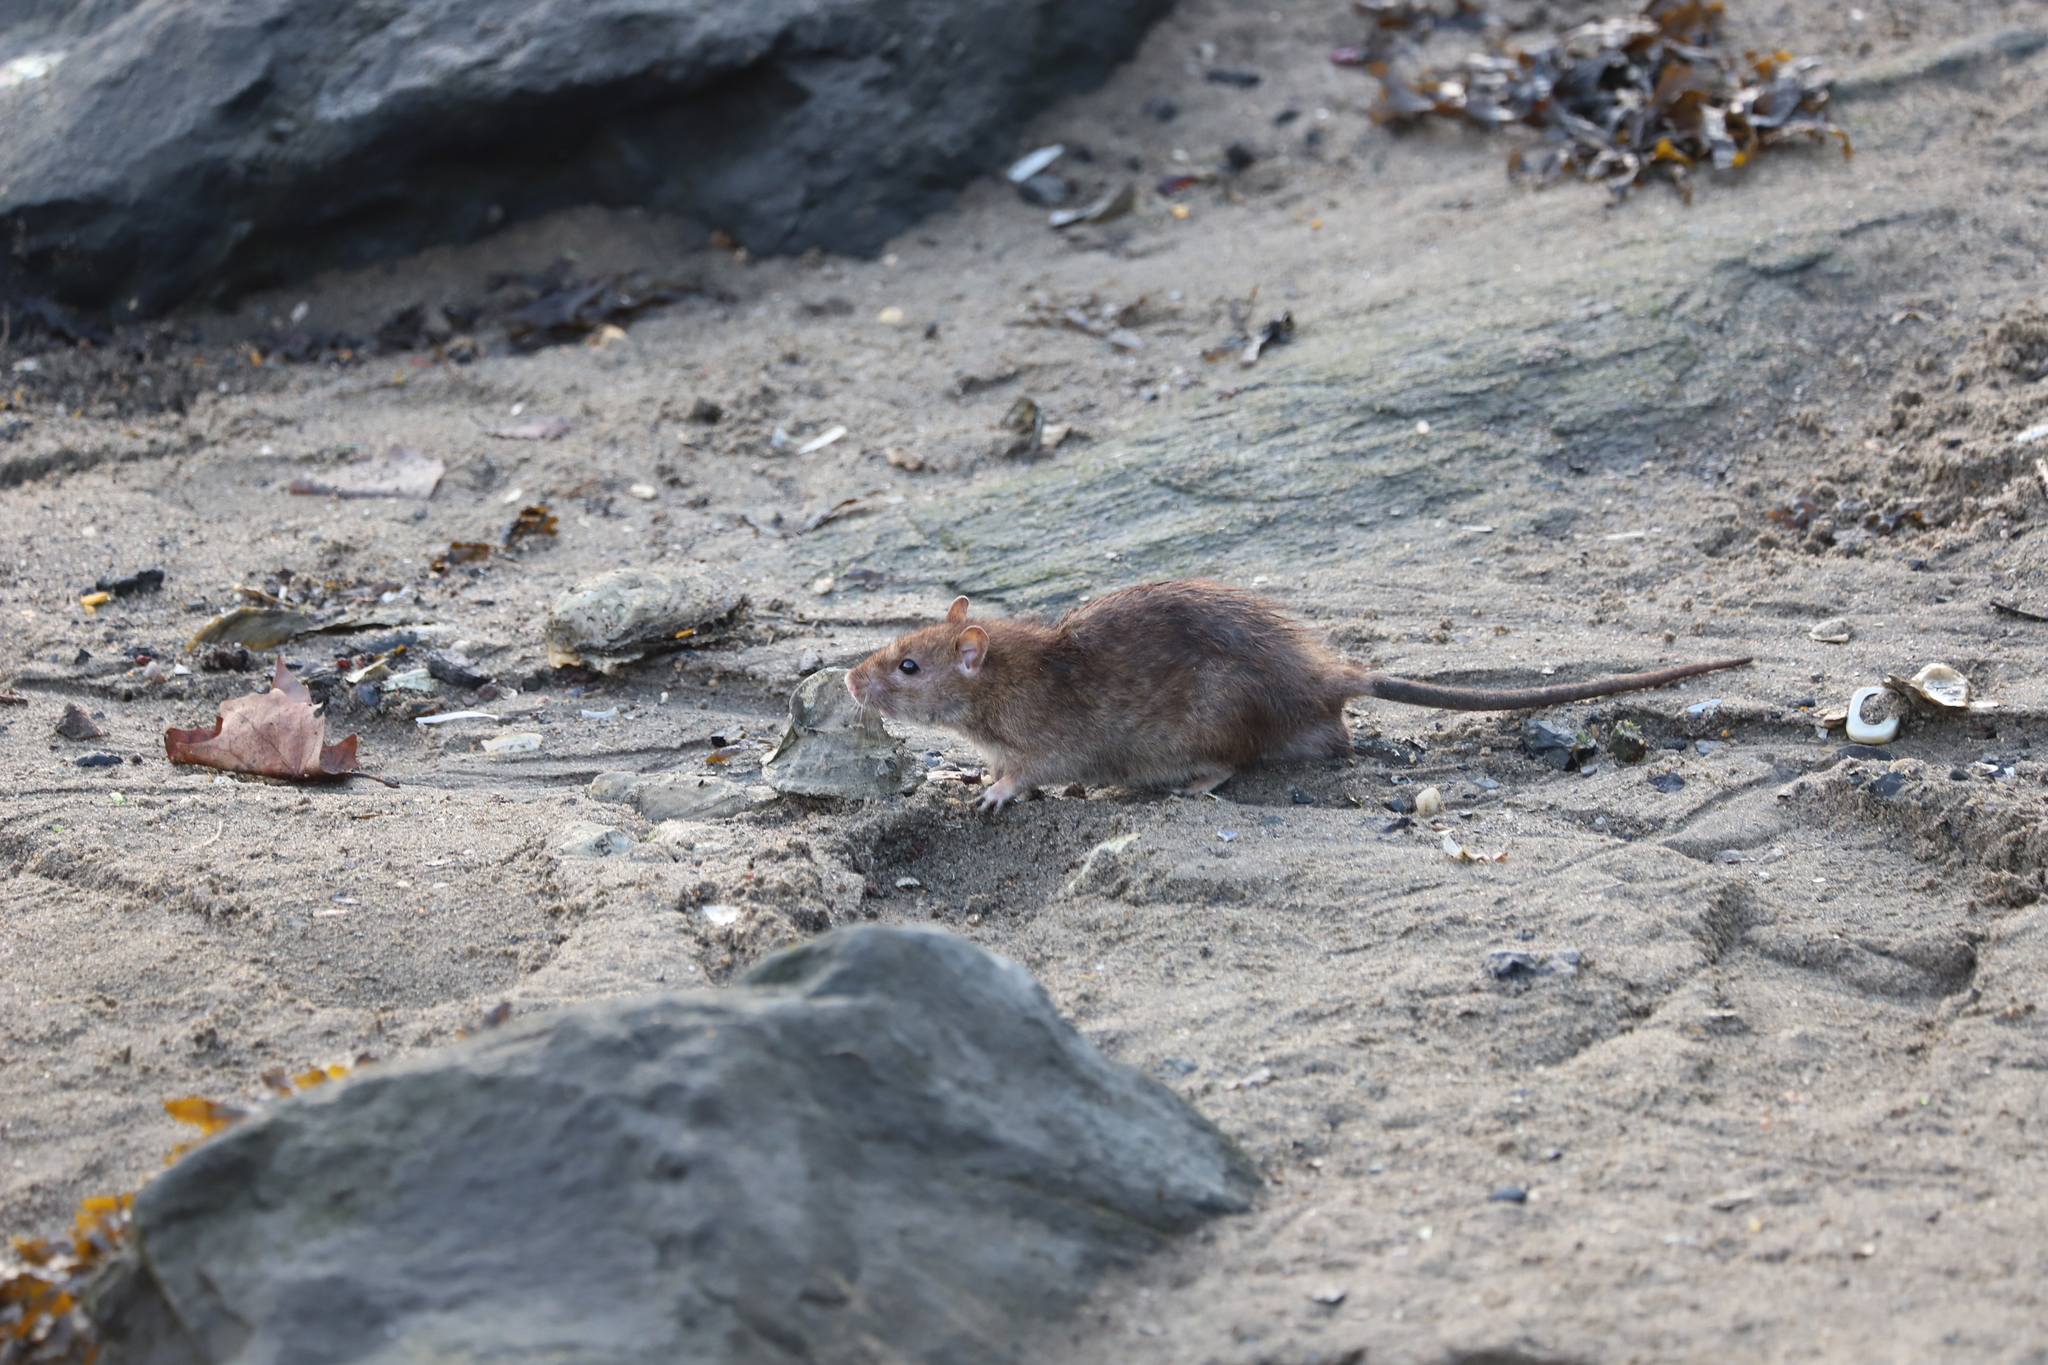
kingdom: Animalia
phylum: Chordata
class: Mammalia
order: Rodentia
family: Muridae
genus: Rattus
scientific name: Rattus norvegicus
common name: Brown rat
